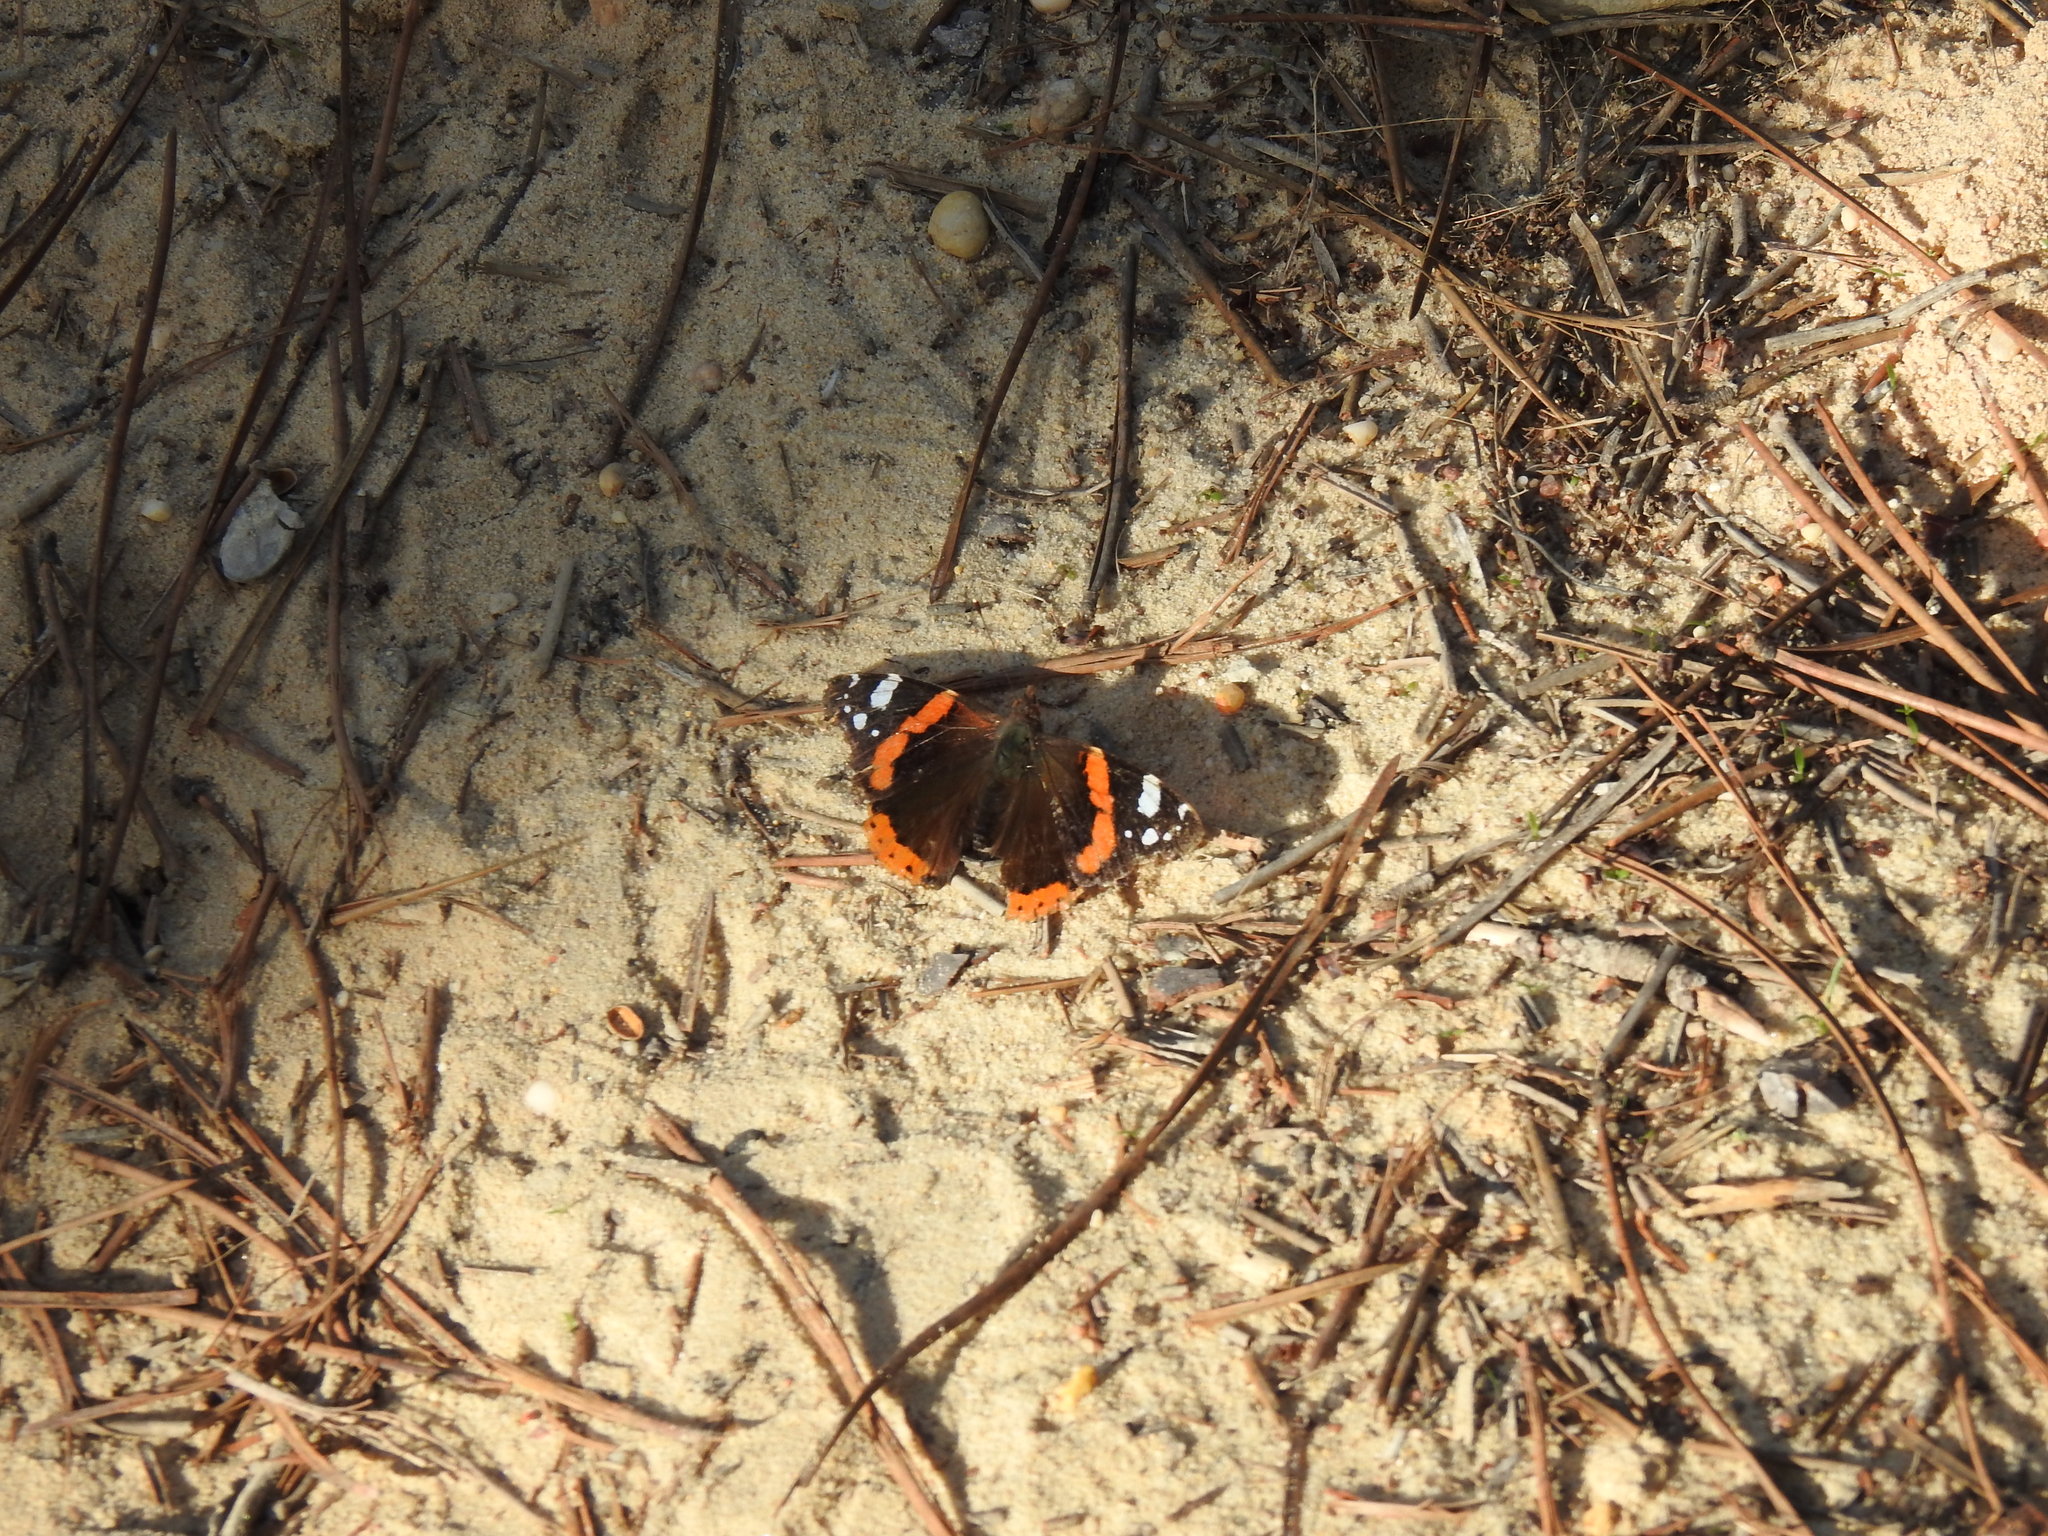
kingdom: Animalia
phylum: Arthropoda
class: Insecta
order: Lepidoptera
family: Nymphalidae
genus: Vanessa
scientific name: Vanessa atalanta
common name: Red admiral
